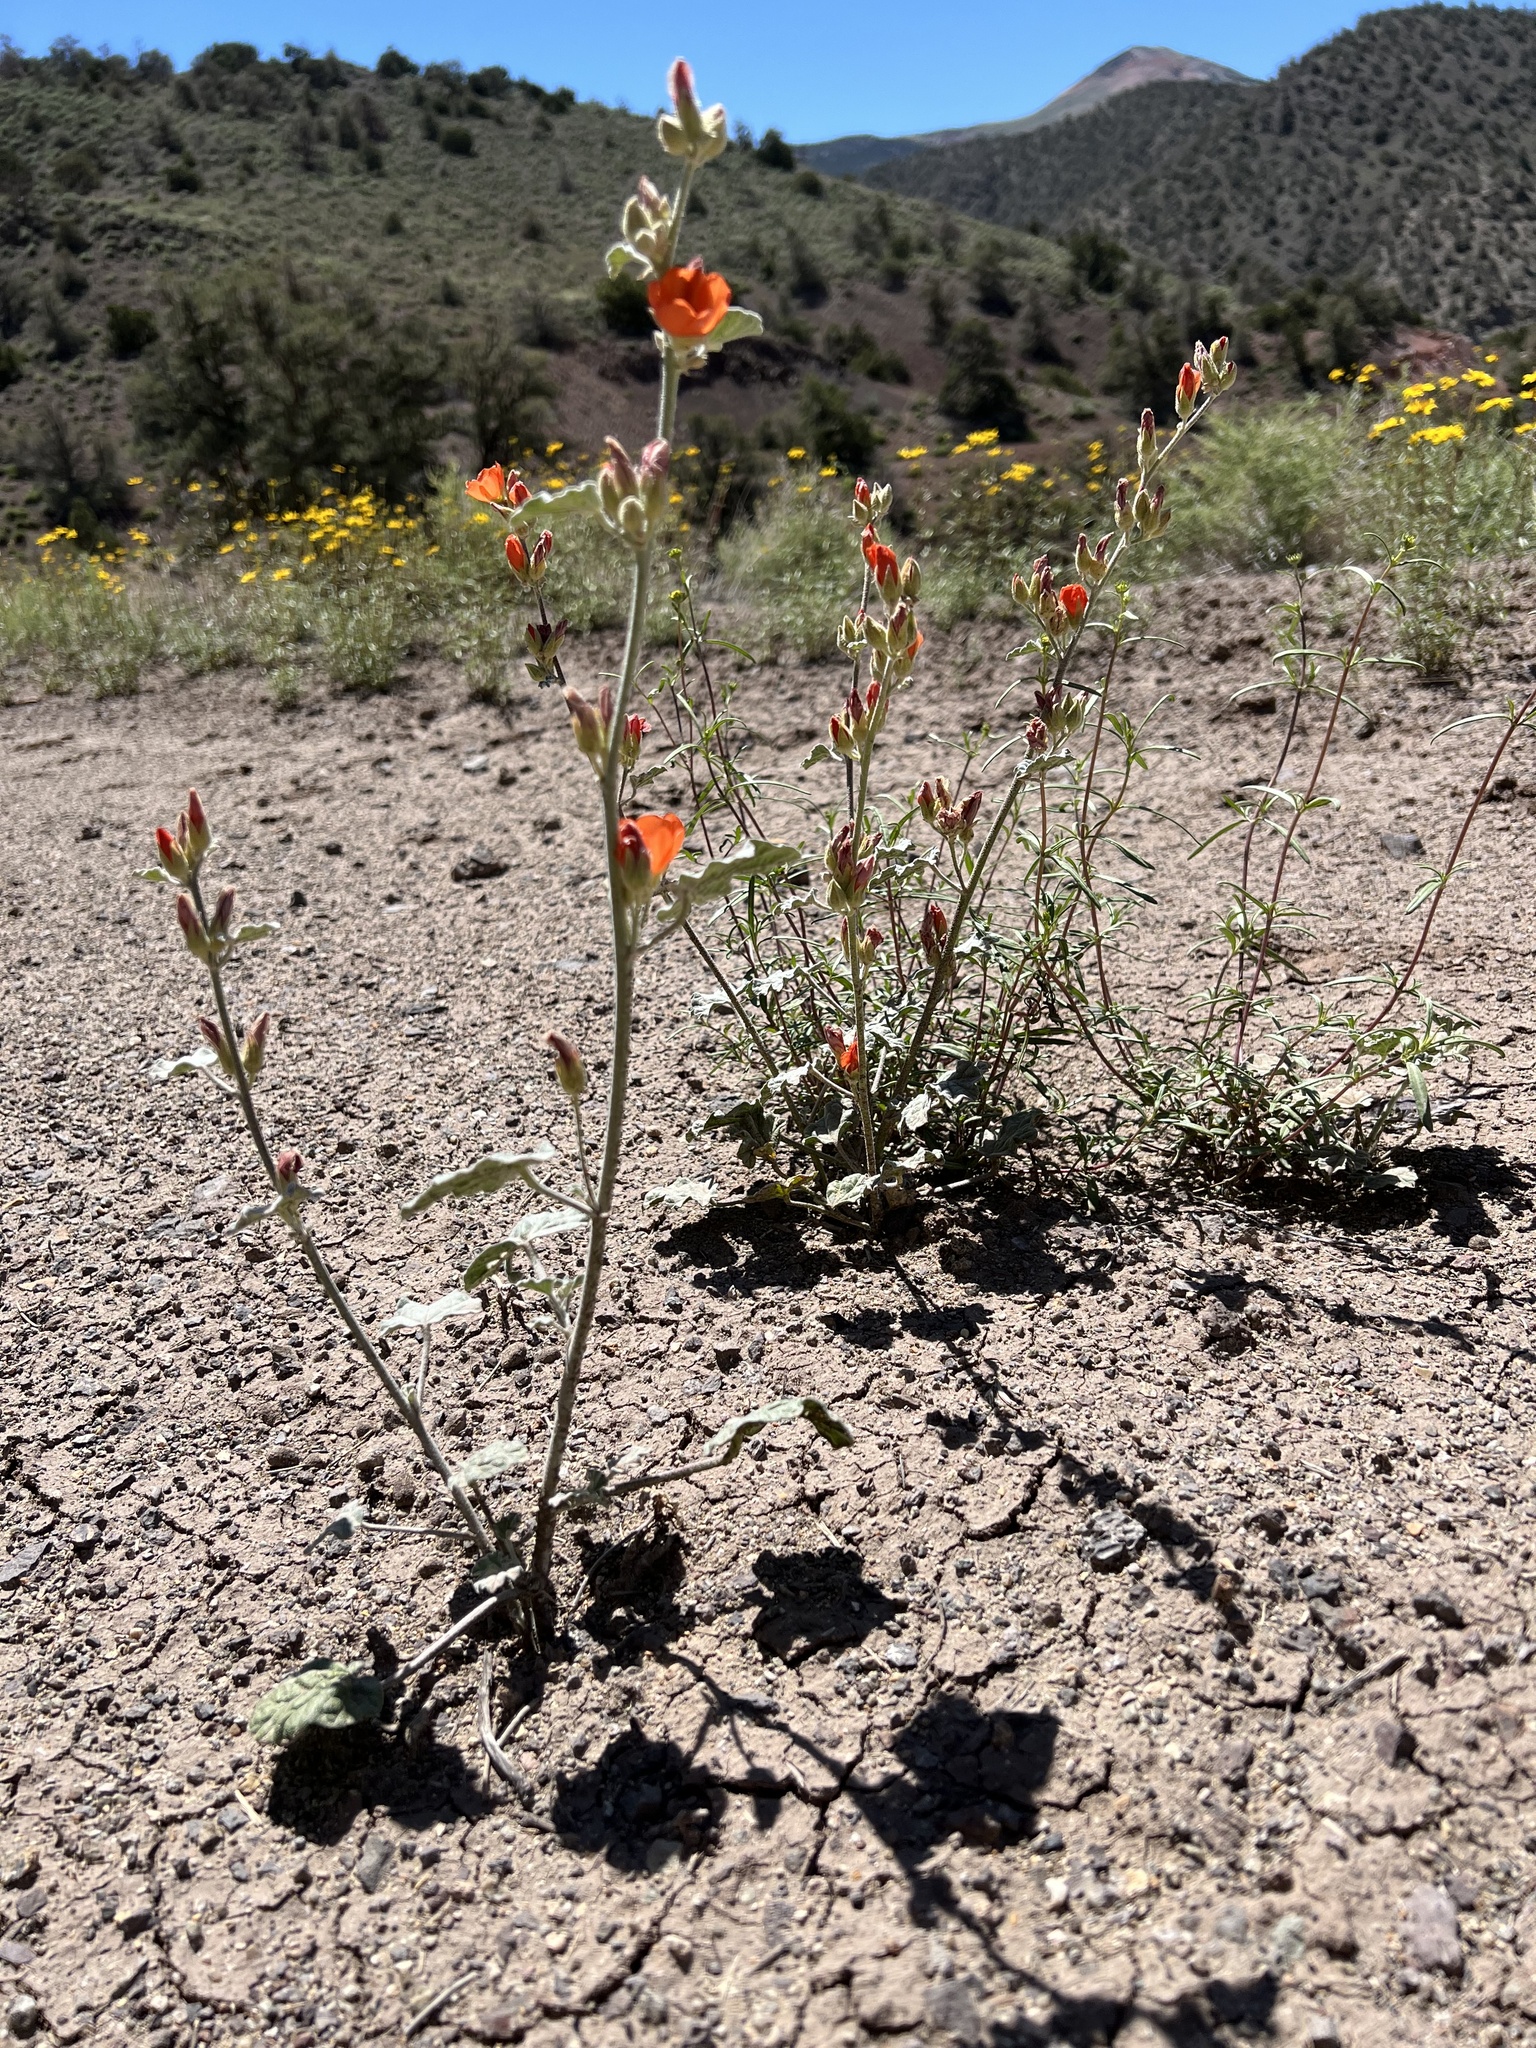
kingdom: Plantae
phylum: Tracheophyta
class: Magnoliopsida
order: Malvales
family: Malvaceae
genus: Sphaeralcea
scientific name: Sphaeralcea ambigua
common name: Apricot globe-mallow
